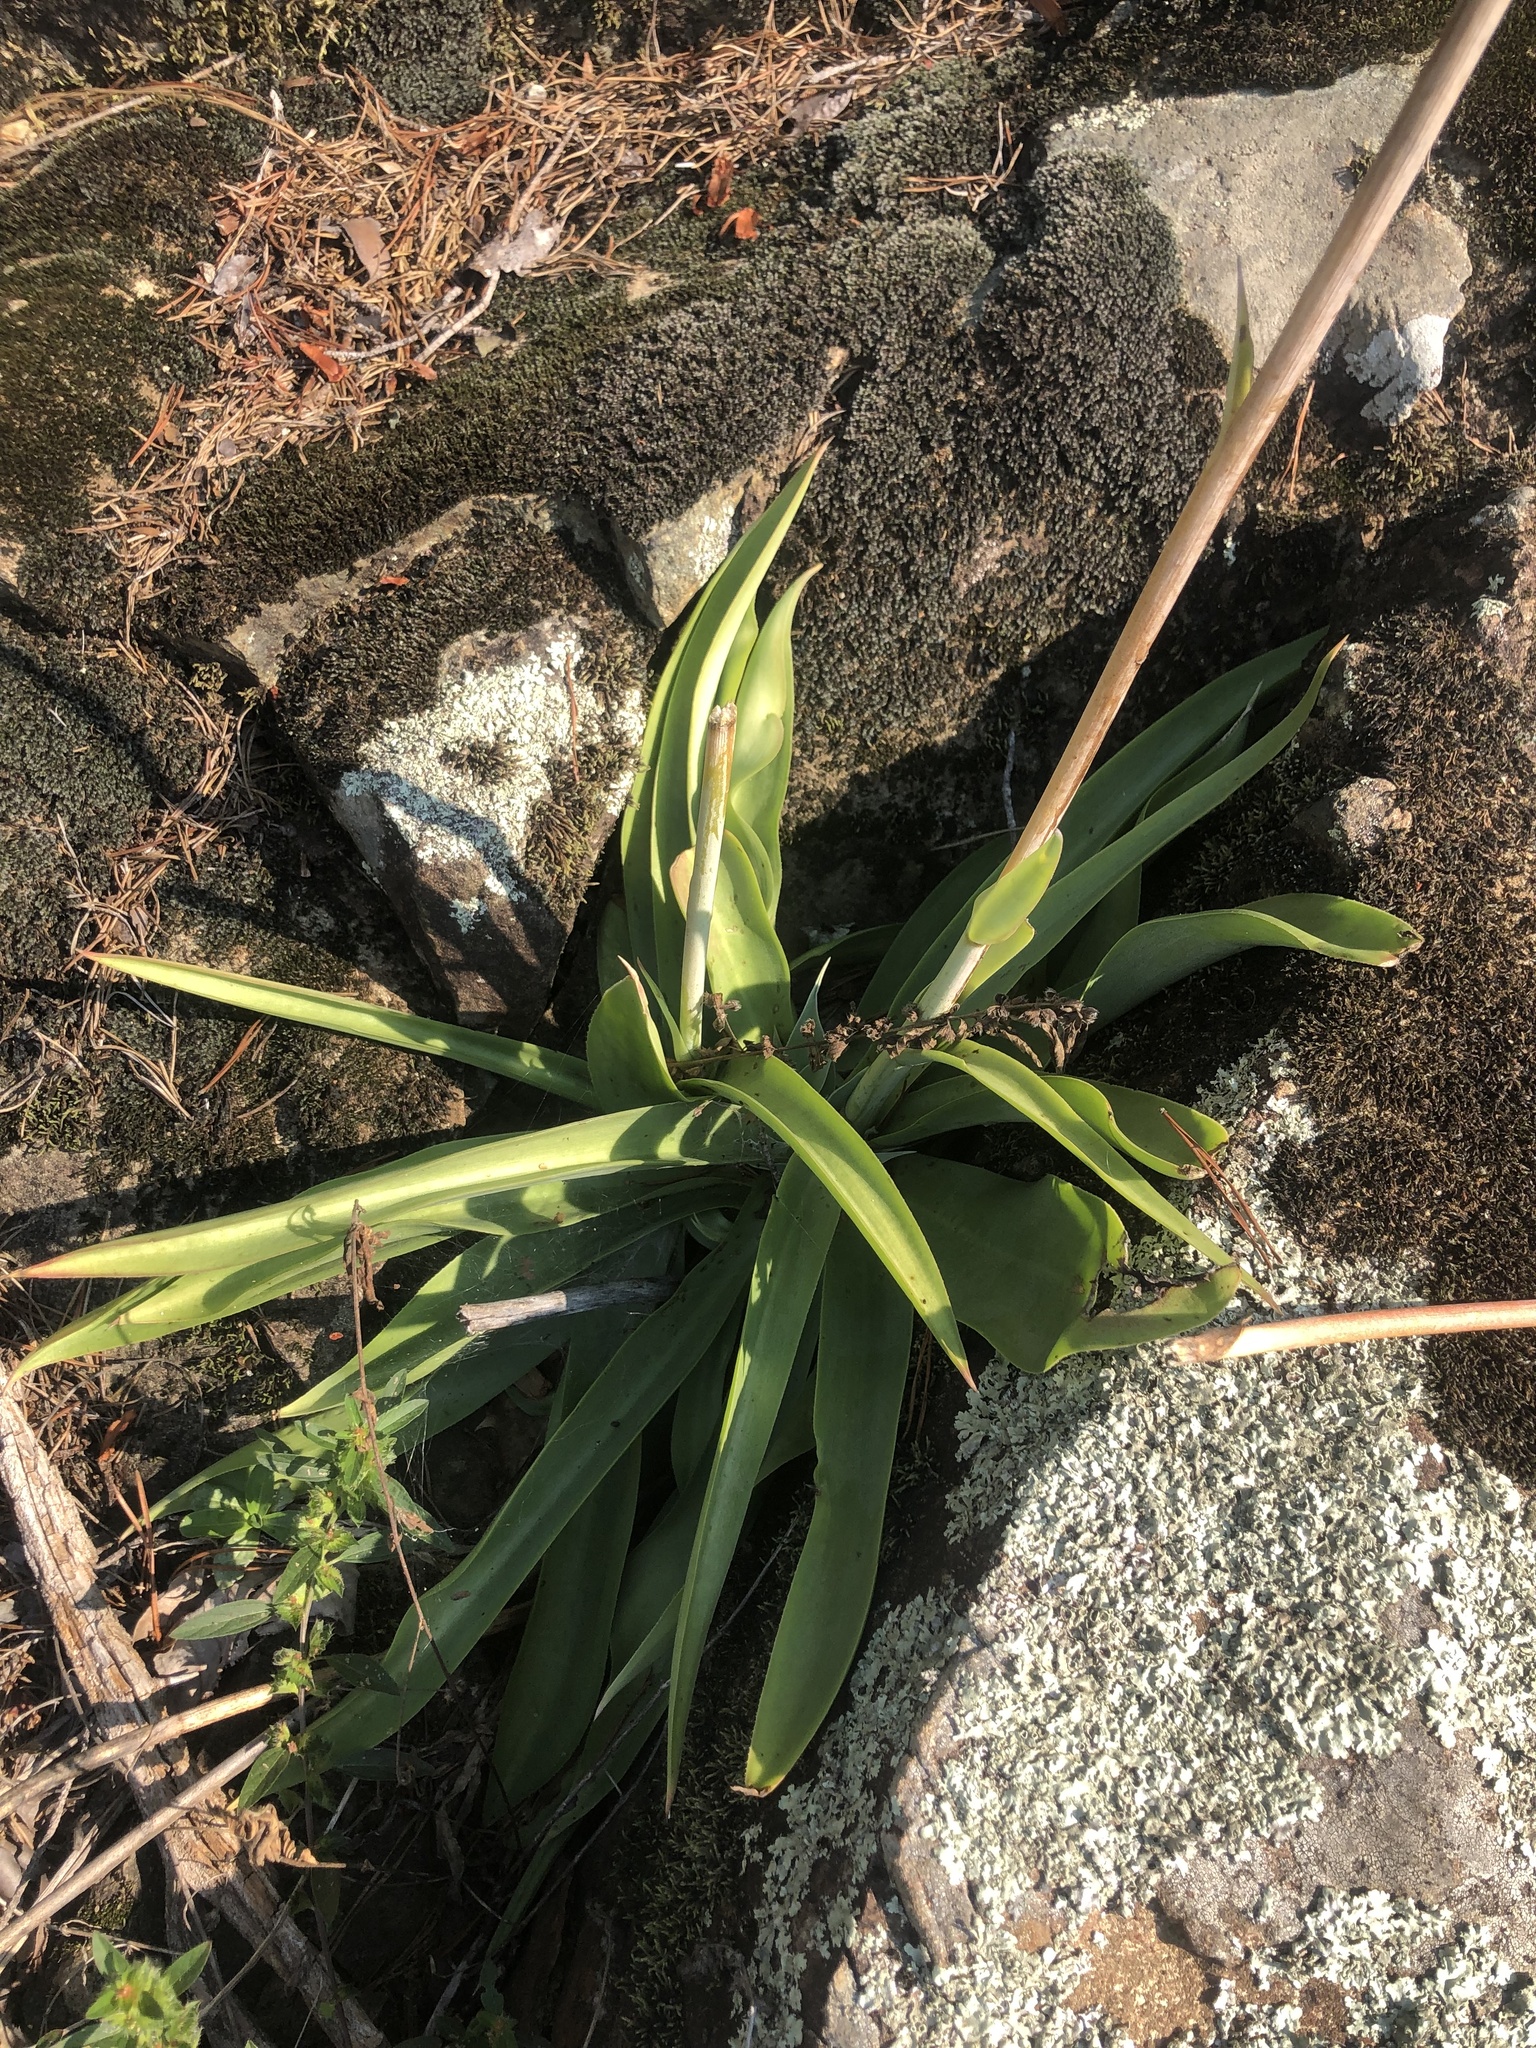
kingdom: Plantae
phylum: Tracheophyta
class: Liliopsida
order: Asparagales
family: Asparagaceae
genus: Agave
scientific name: Agave virginica
